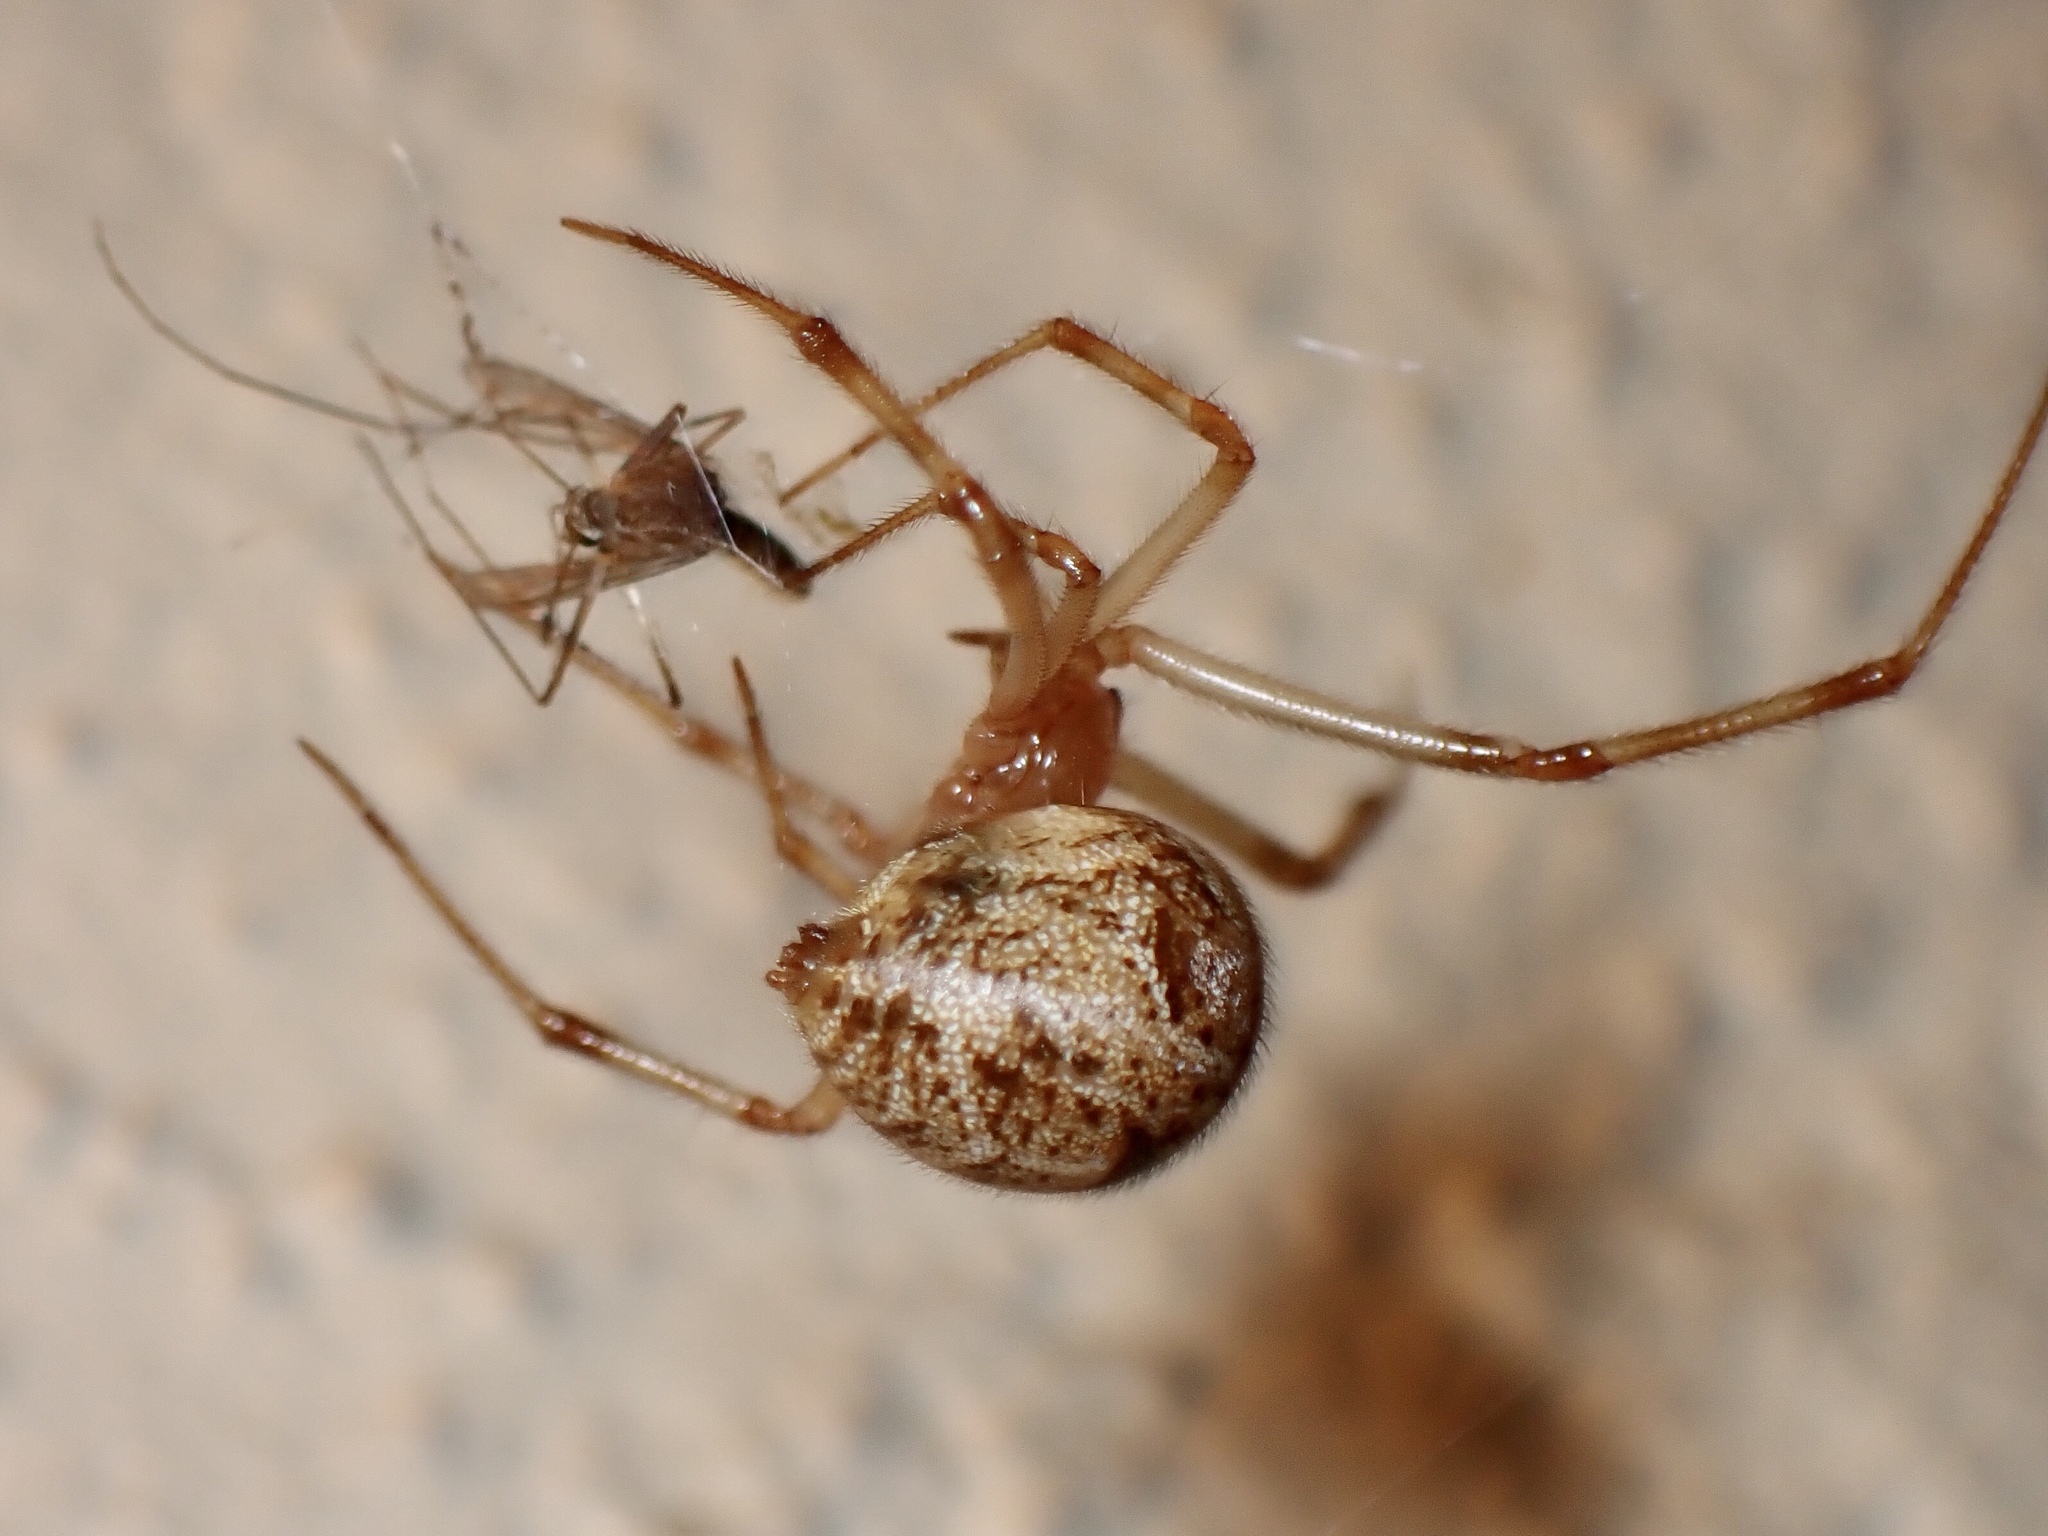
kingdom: Animalia
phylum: Arthropoda
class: Insecta
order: Diptera
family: Culicidae
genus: Culex
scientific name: Culex territans
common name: Northern frog-biting mosquito
